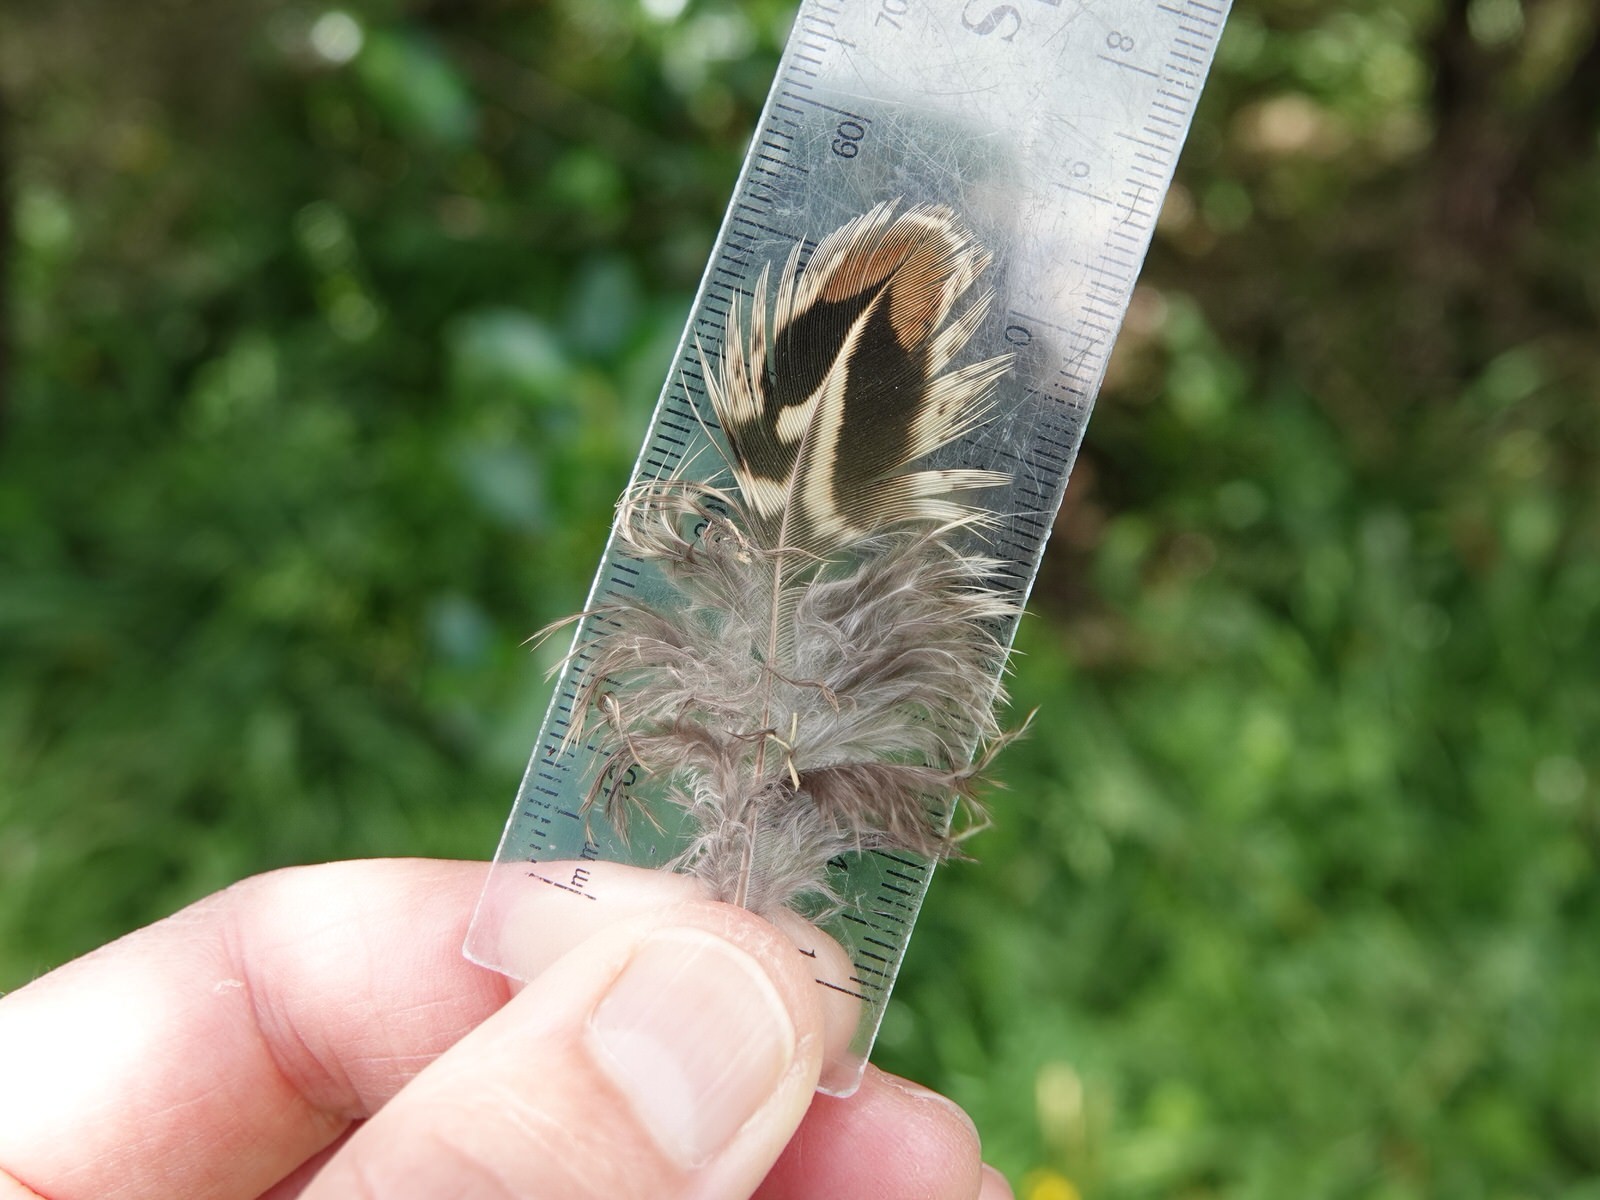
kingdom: Animalia
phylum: Chordata
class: Aves
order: Galliformes
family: Phasianidae
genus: Phasianus
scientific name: Phasianus colchicus
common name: Common pheasant
